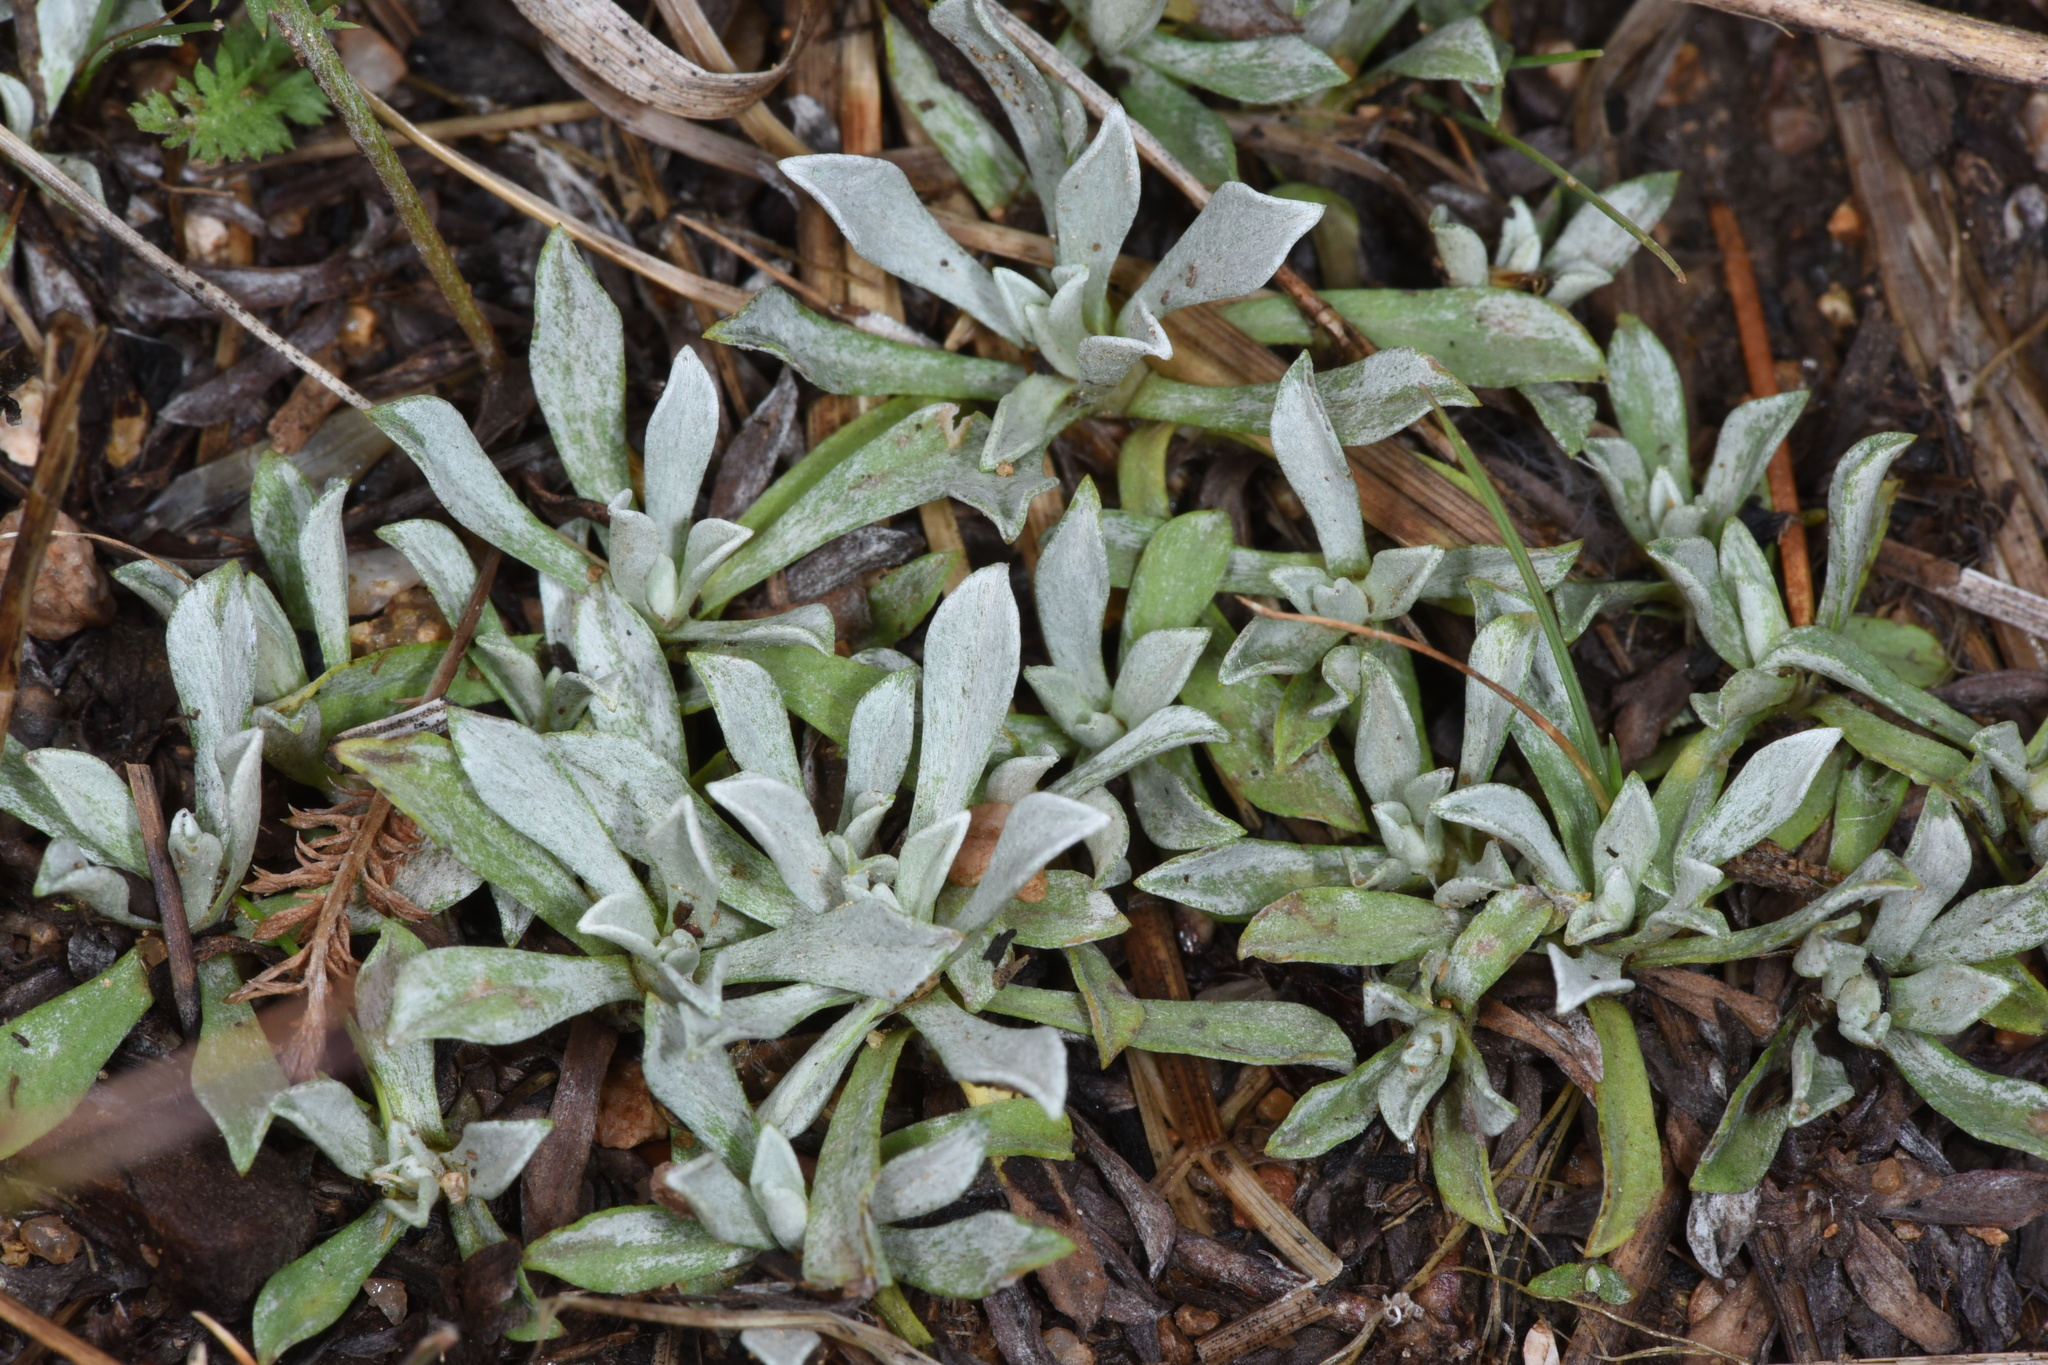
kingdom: Plantae
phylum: Tracheophyta
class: Magnoliopsida
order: Asterales
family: Asteraceae
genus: Antennaria
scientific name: Antennaria parvifolia
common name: Nuttall's pussytoes
